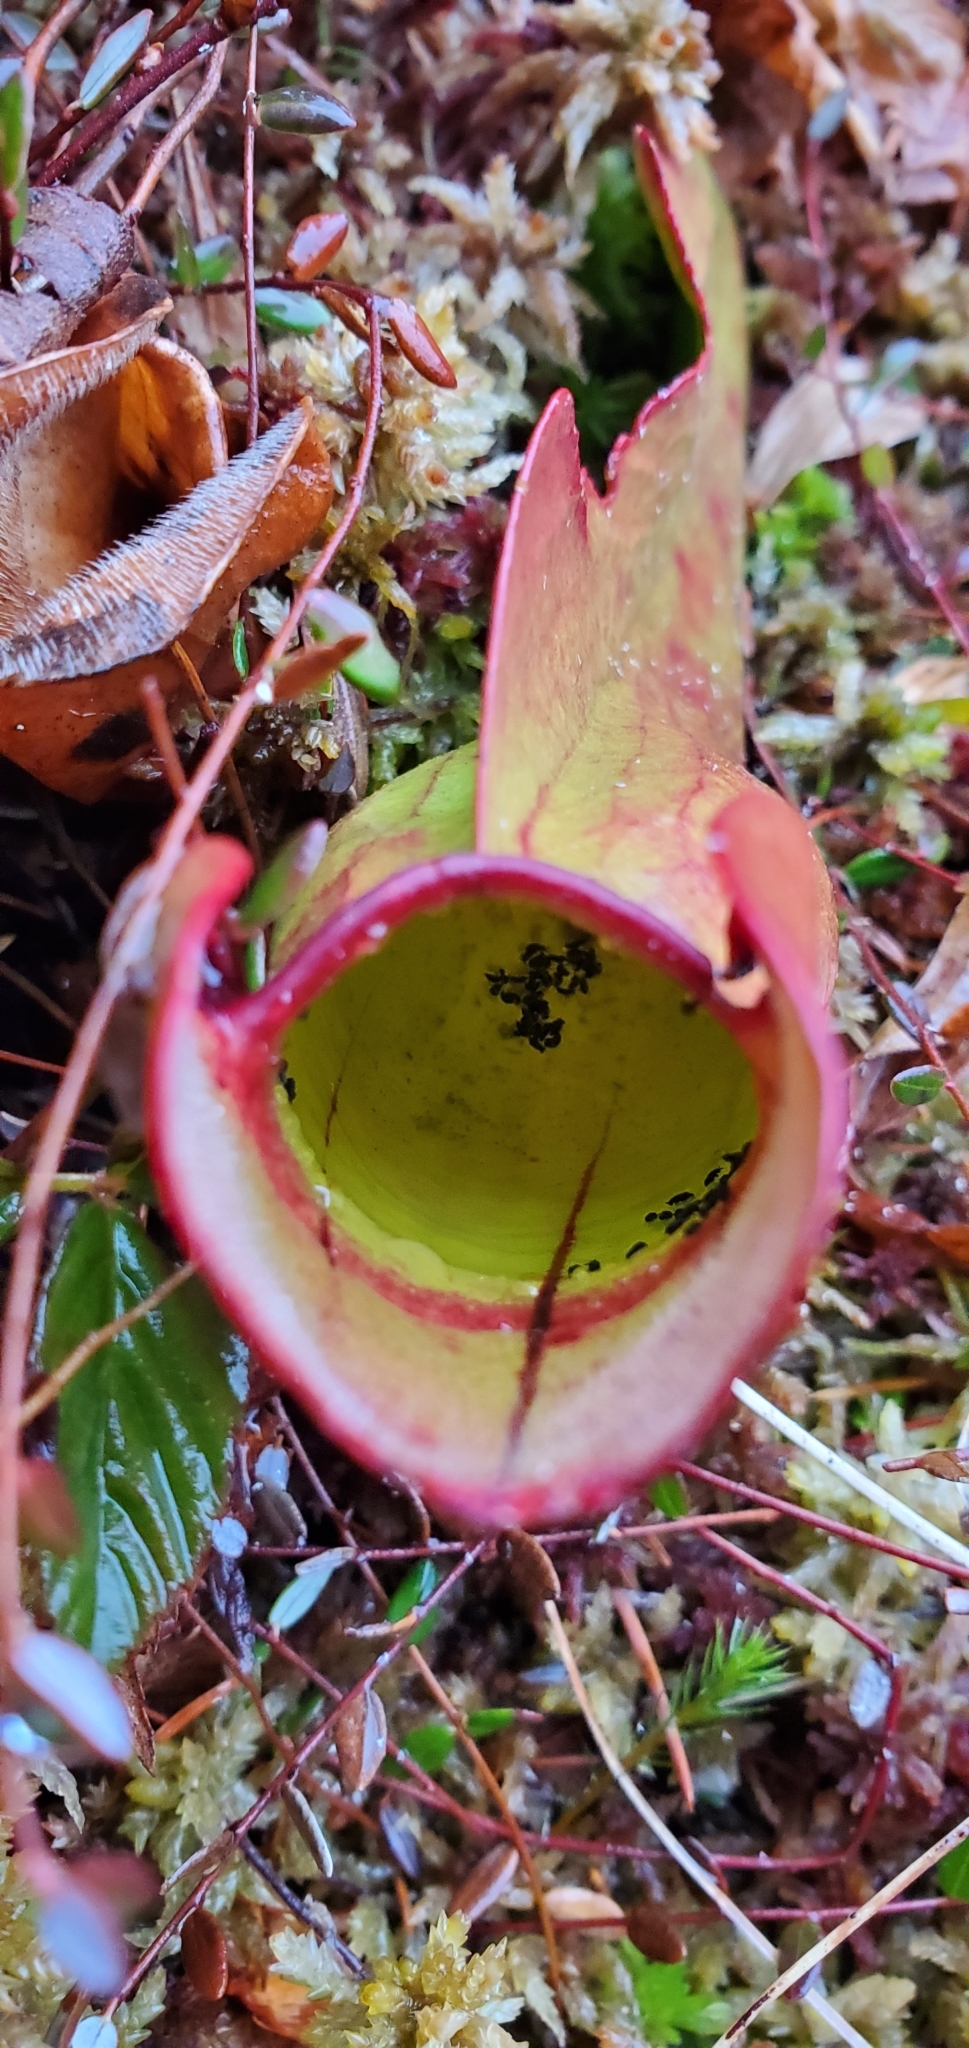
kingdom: Plantae
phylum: Tracheophyta
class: Magnoliopsida
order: Ericales
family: Sarraceniaceae
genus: Sarracenia
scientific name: Sarracenia purpurea
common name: Pitcherplant
